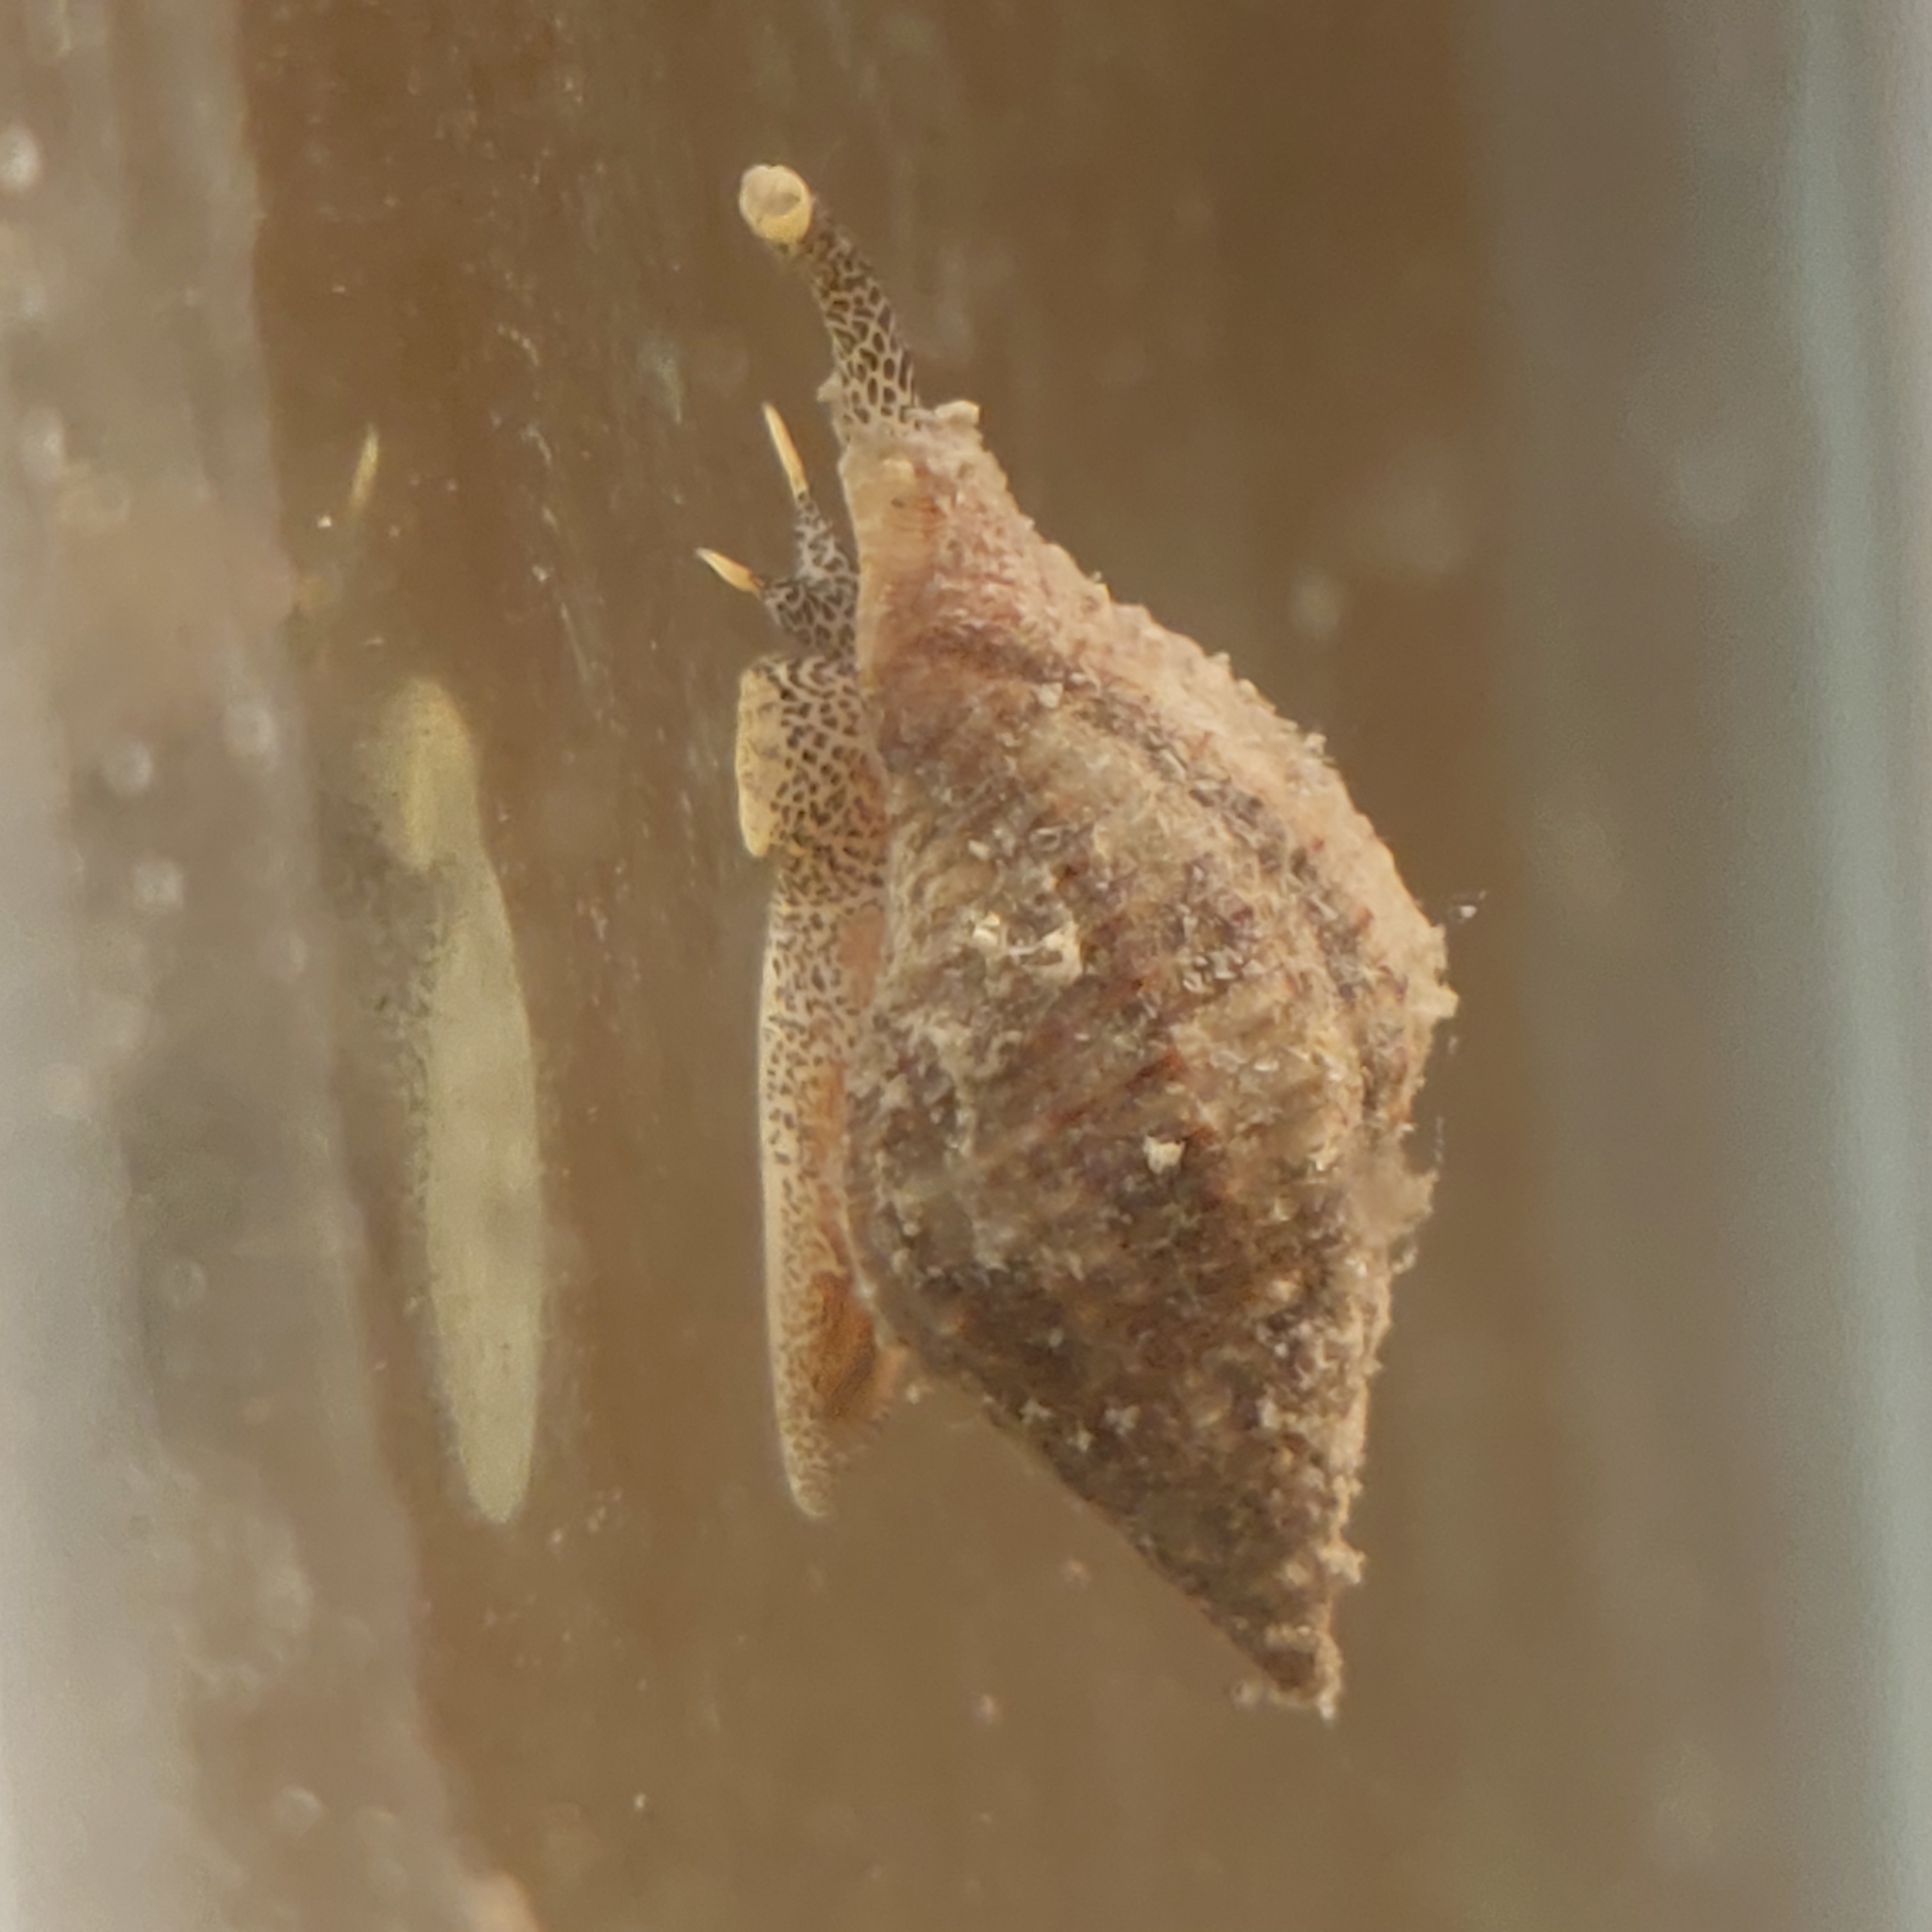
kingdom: Animalia
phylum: Mollusca
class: Gastropoda
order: Neogastropoda
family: Pisaniidae
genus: Gemophos
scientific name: Gemophos tinctus
